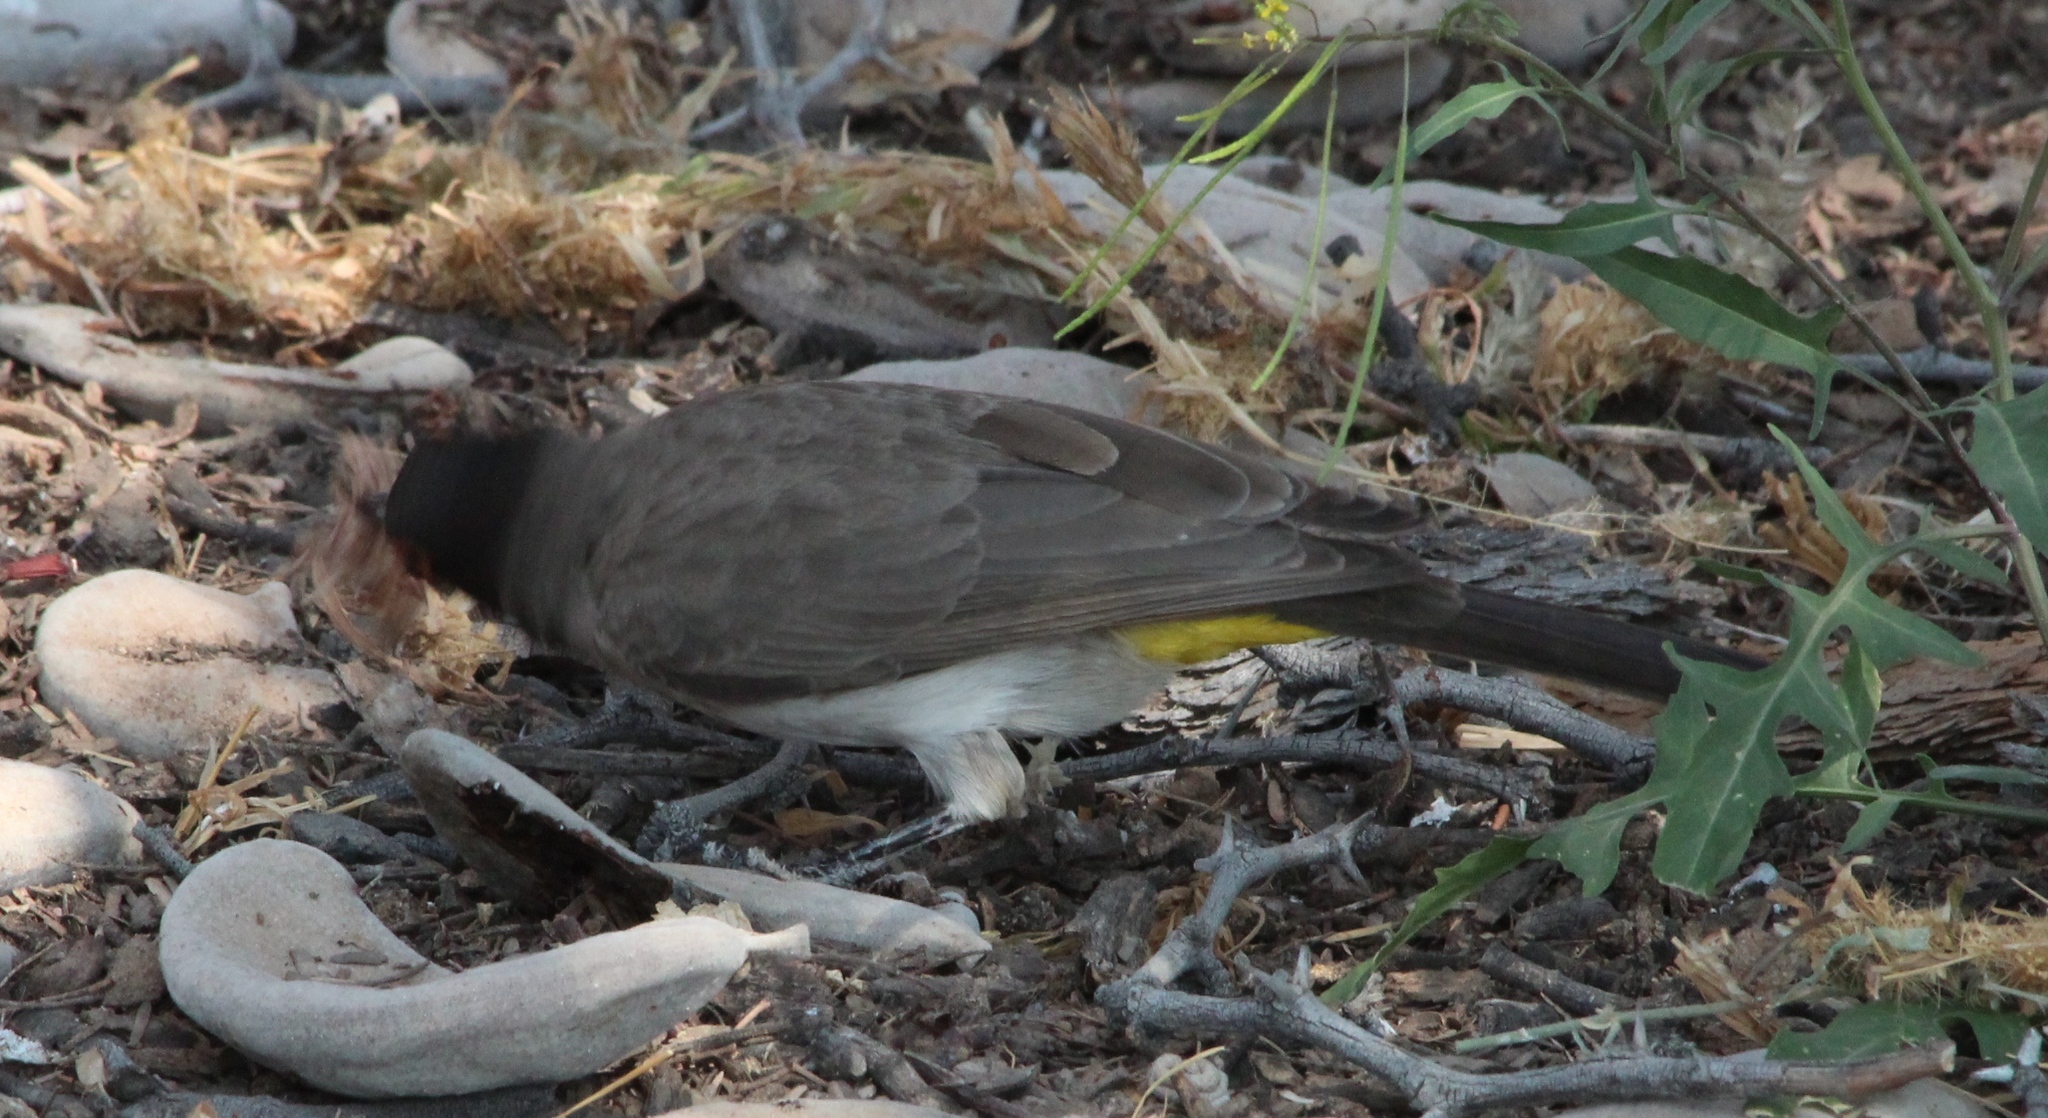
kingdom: Animalia
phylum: Chordata
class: Aves
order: Passeriformes
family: Pycnonotidae
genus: Pycnonotus
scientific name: Pycnonotus nigricans
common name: African red-eyed bulbul
